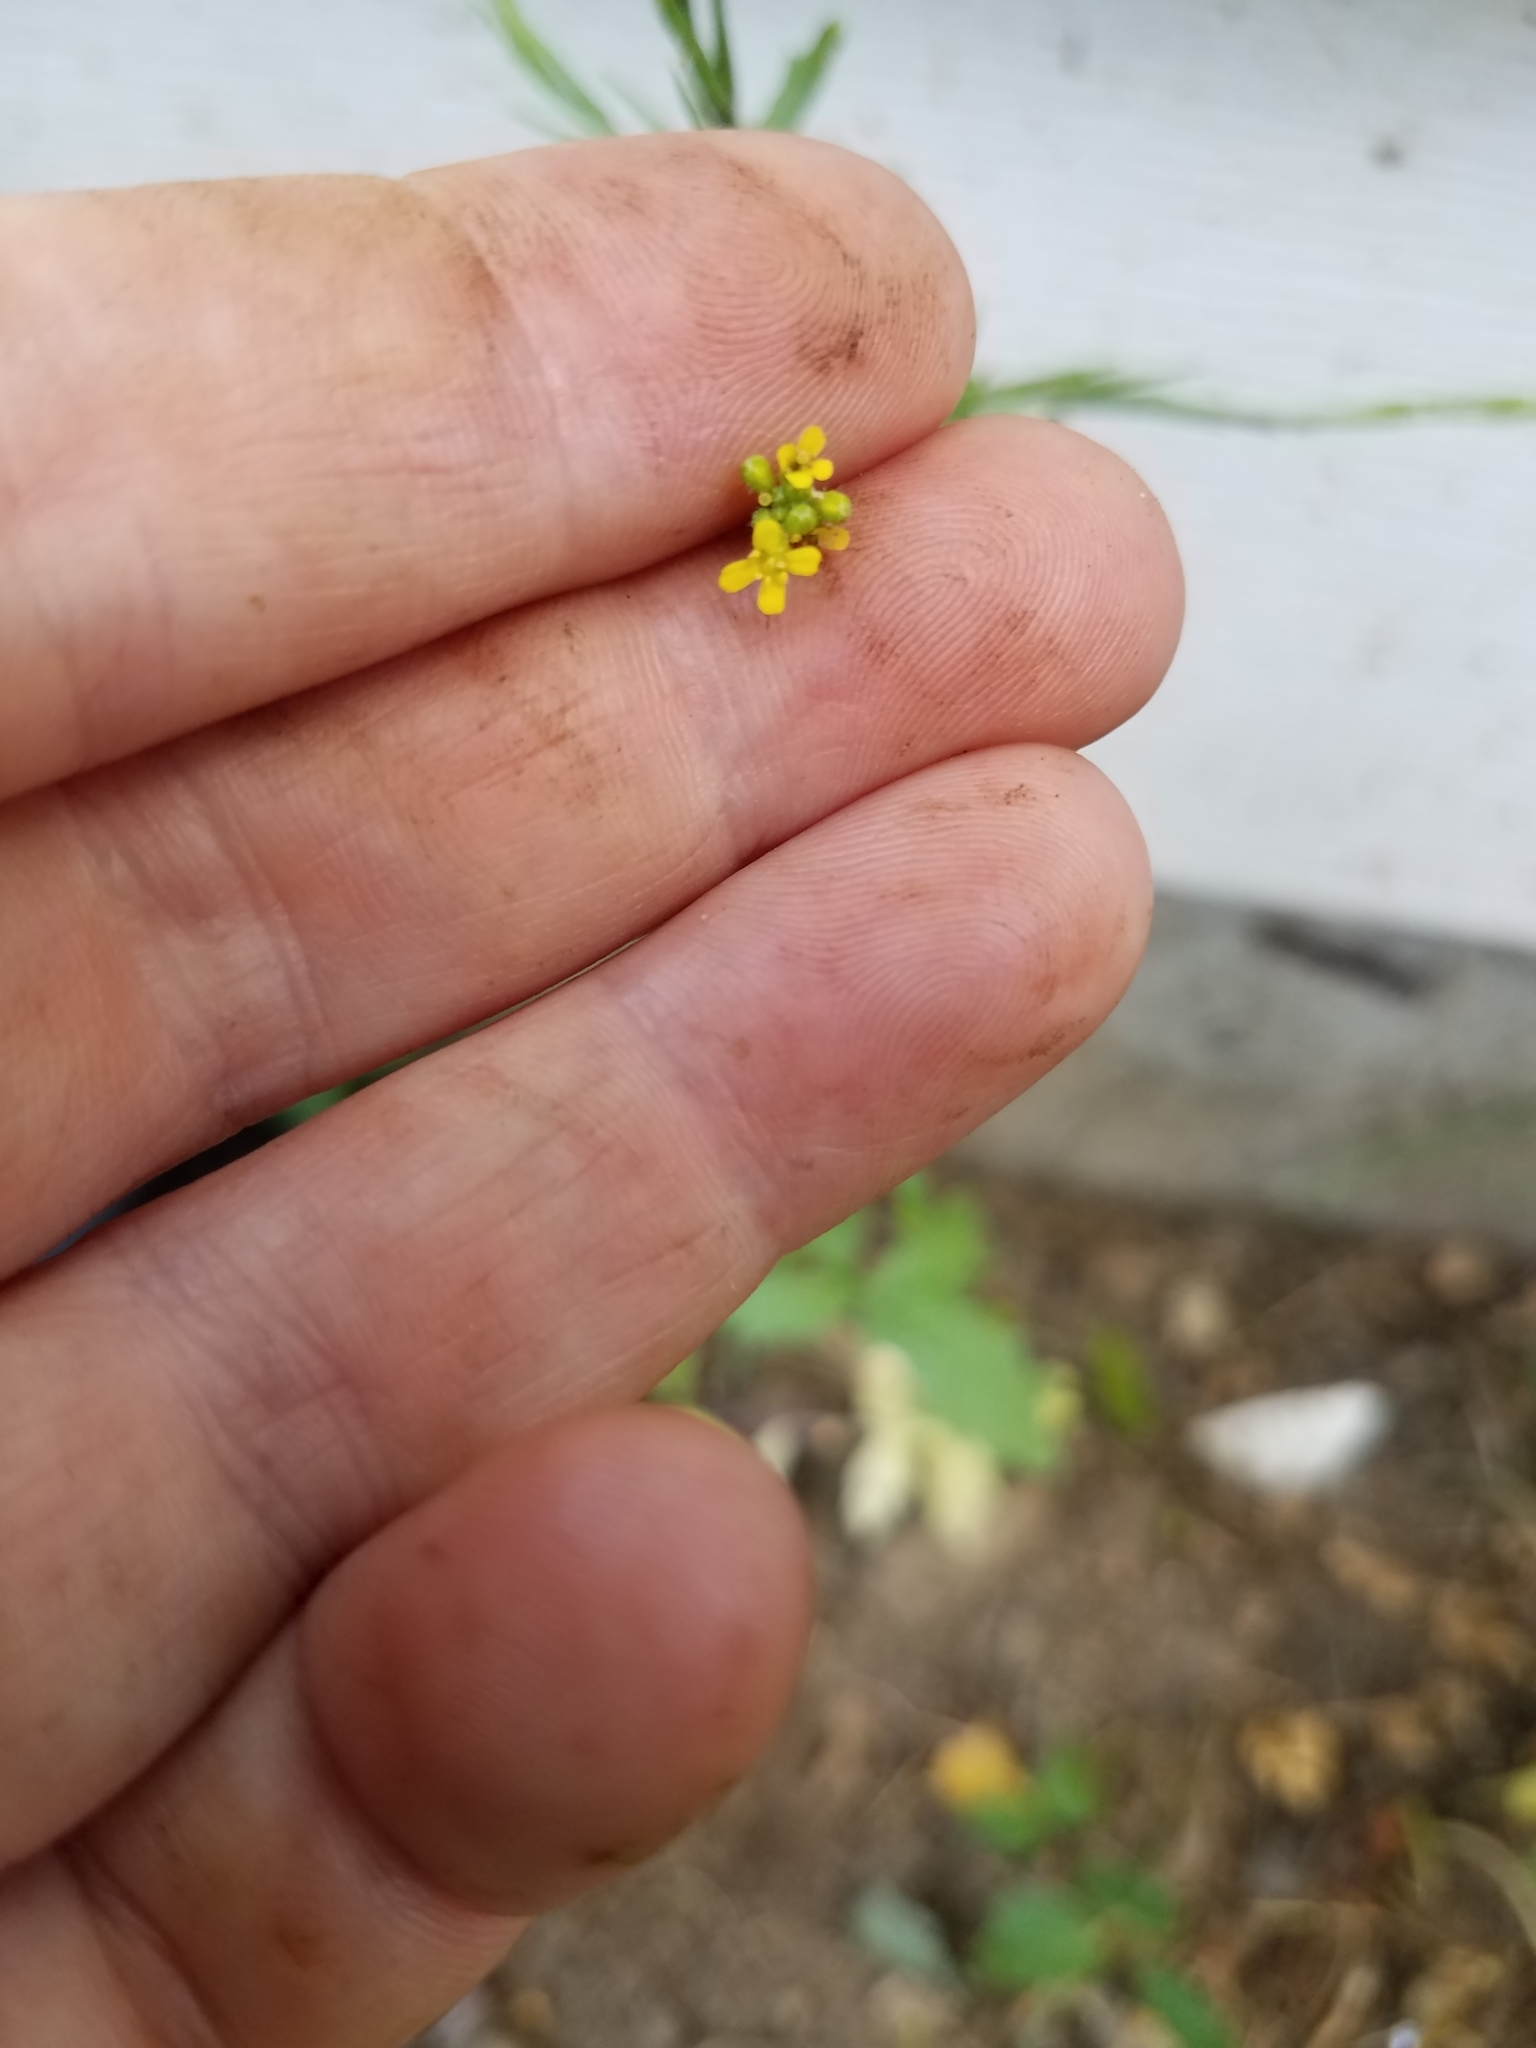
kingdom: Plantae
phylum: Tracheophyta
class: Magnoliopsida
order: Brassicales
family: Brassicaceae
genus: Sisymbrium
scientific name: Sisymbrium officinale
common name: Hedge mustard
